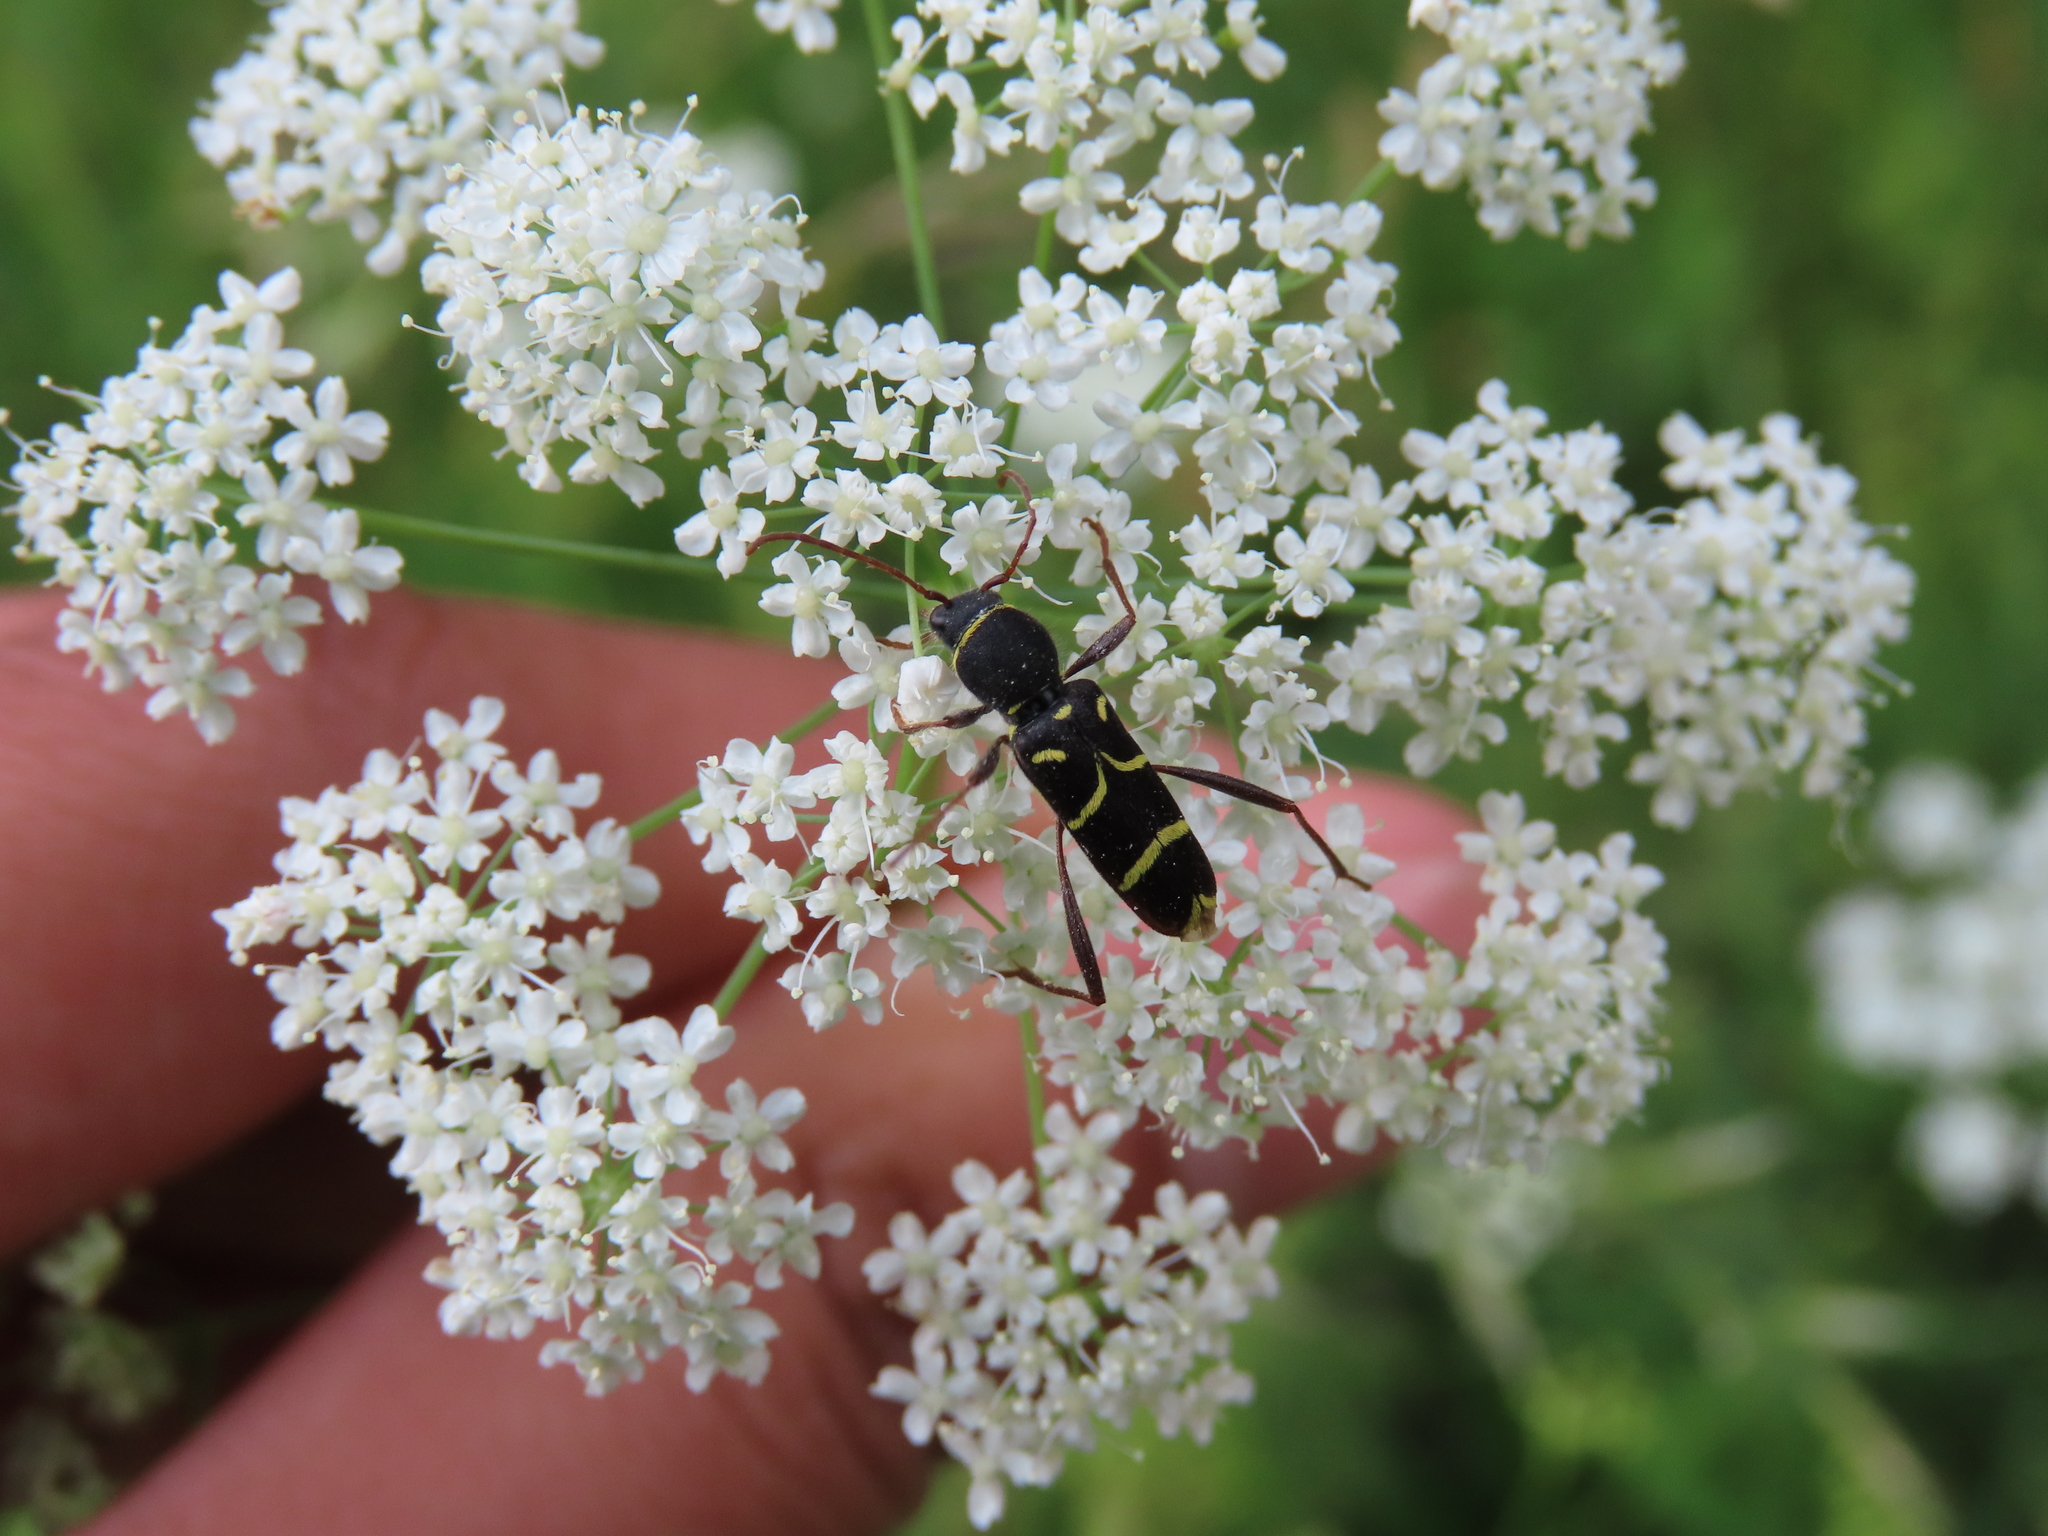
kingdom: Animalia
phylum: Arthropoda
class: Insecta
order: Coleoptera
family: Cerambycidae
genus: Clytus
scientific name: Clytus lama
